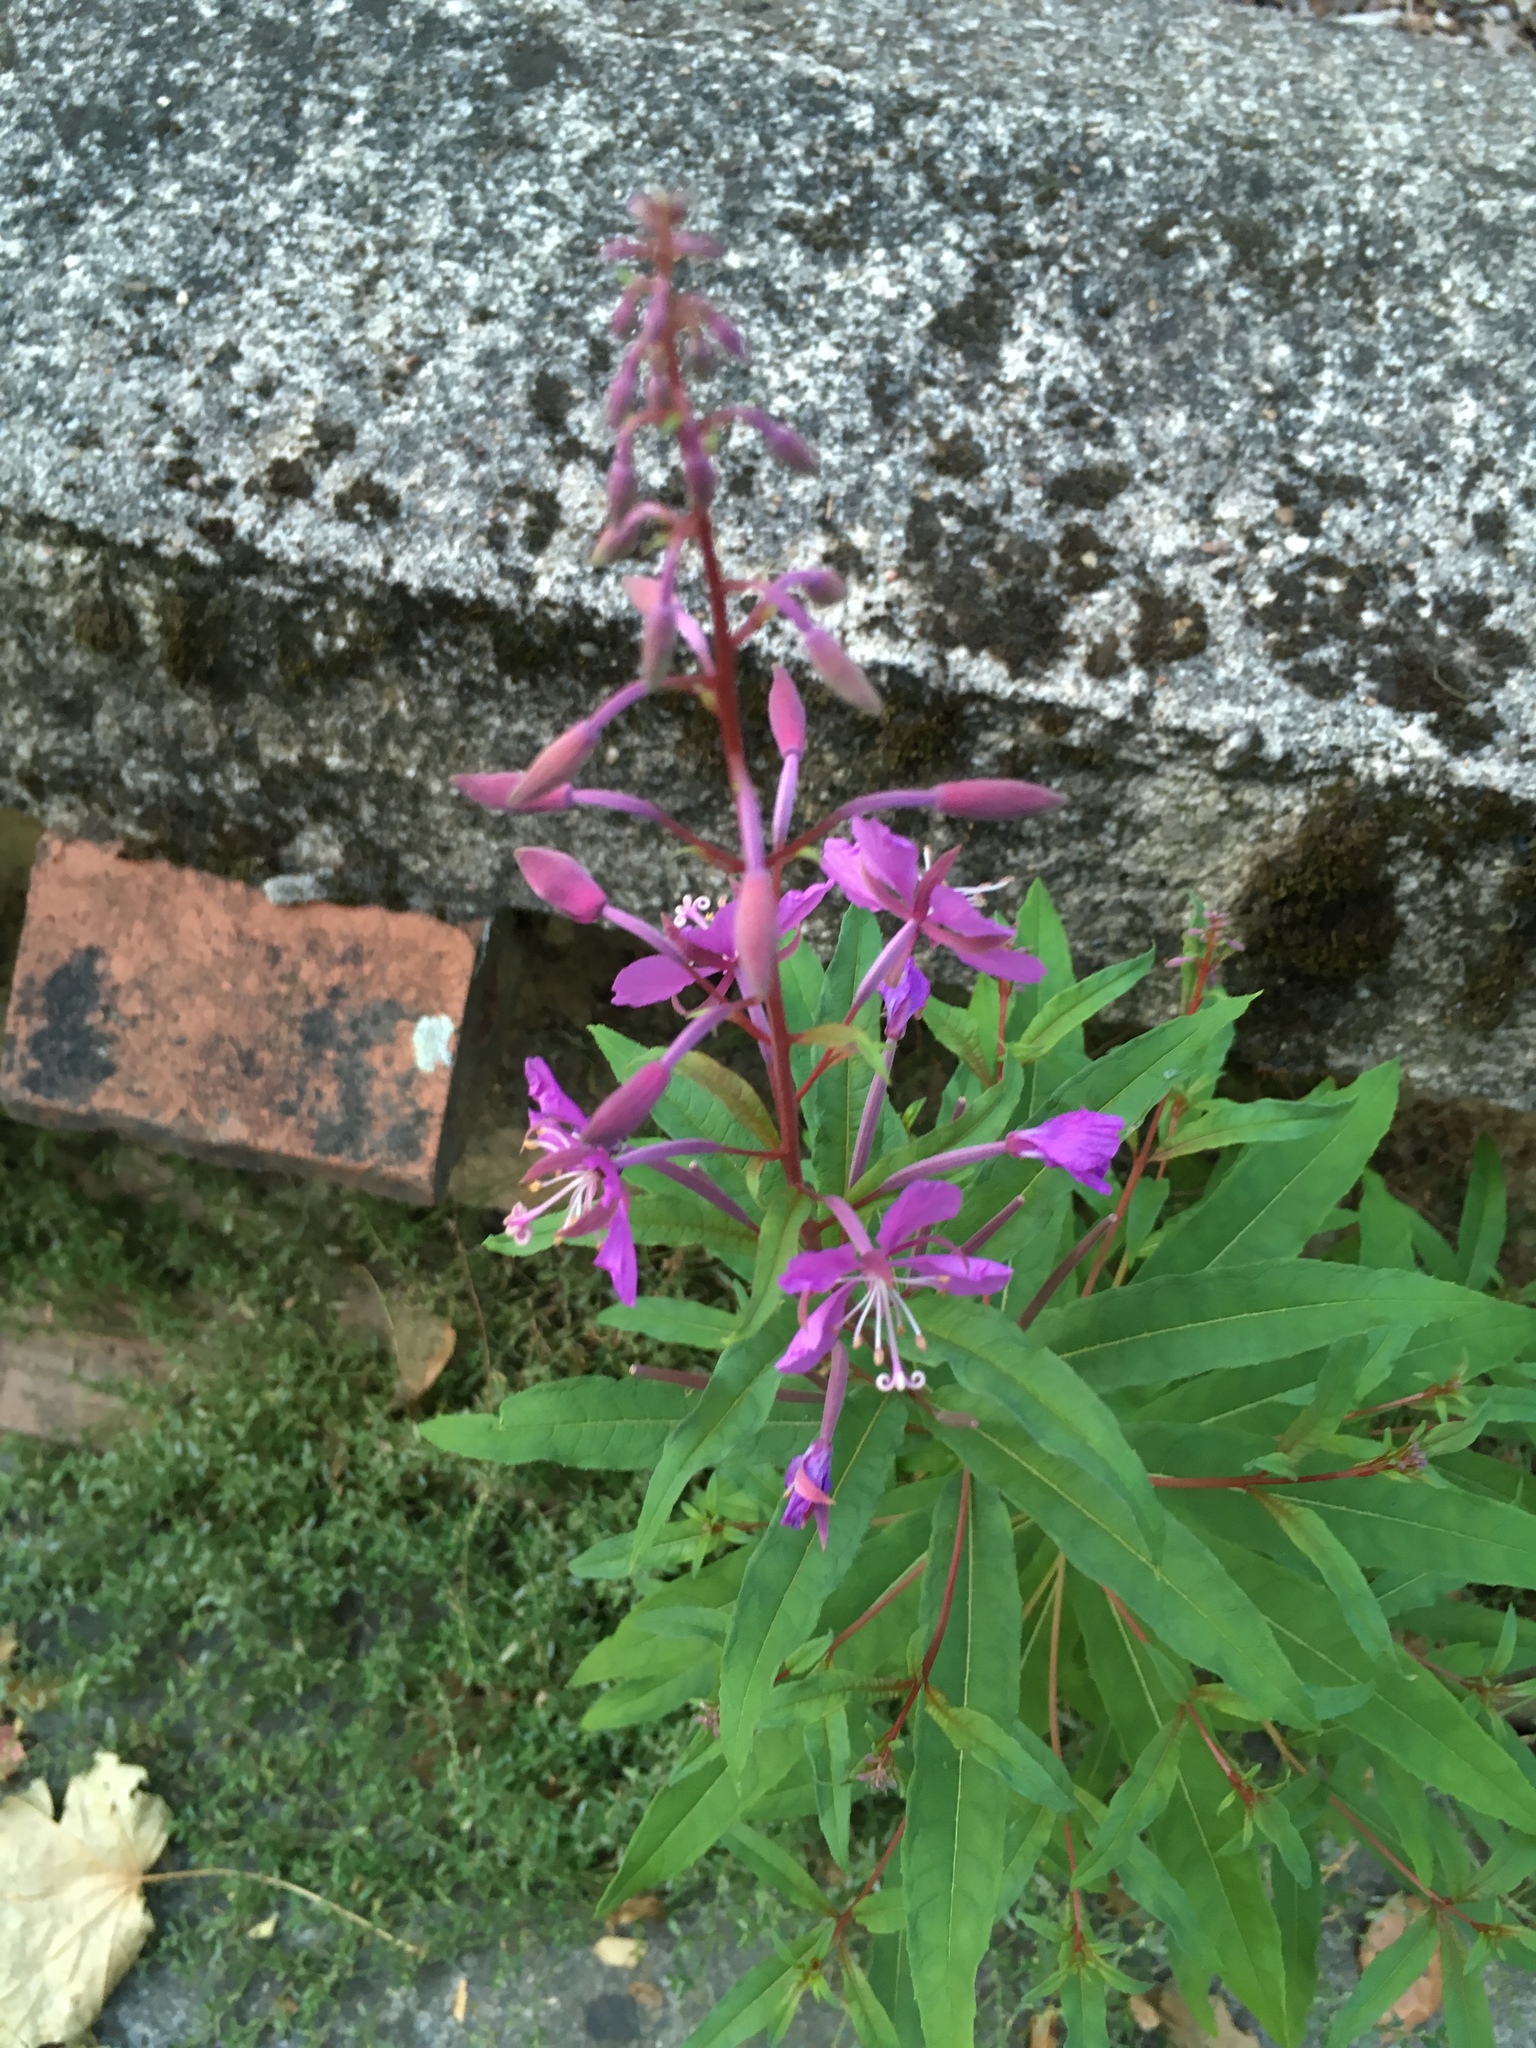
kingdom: Plantae
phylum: Tracheophyta
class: Magnoliopsida
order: Myrtales
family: Onagraceae
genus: Chamaenerion
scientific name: Chamaenerion angustifolium
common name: Fireweed
